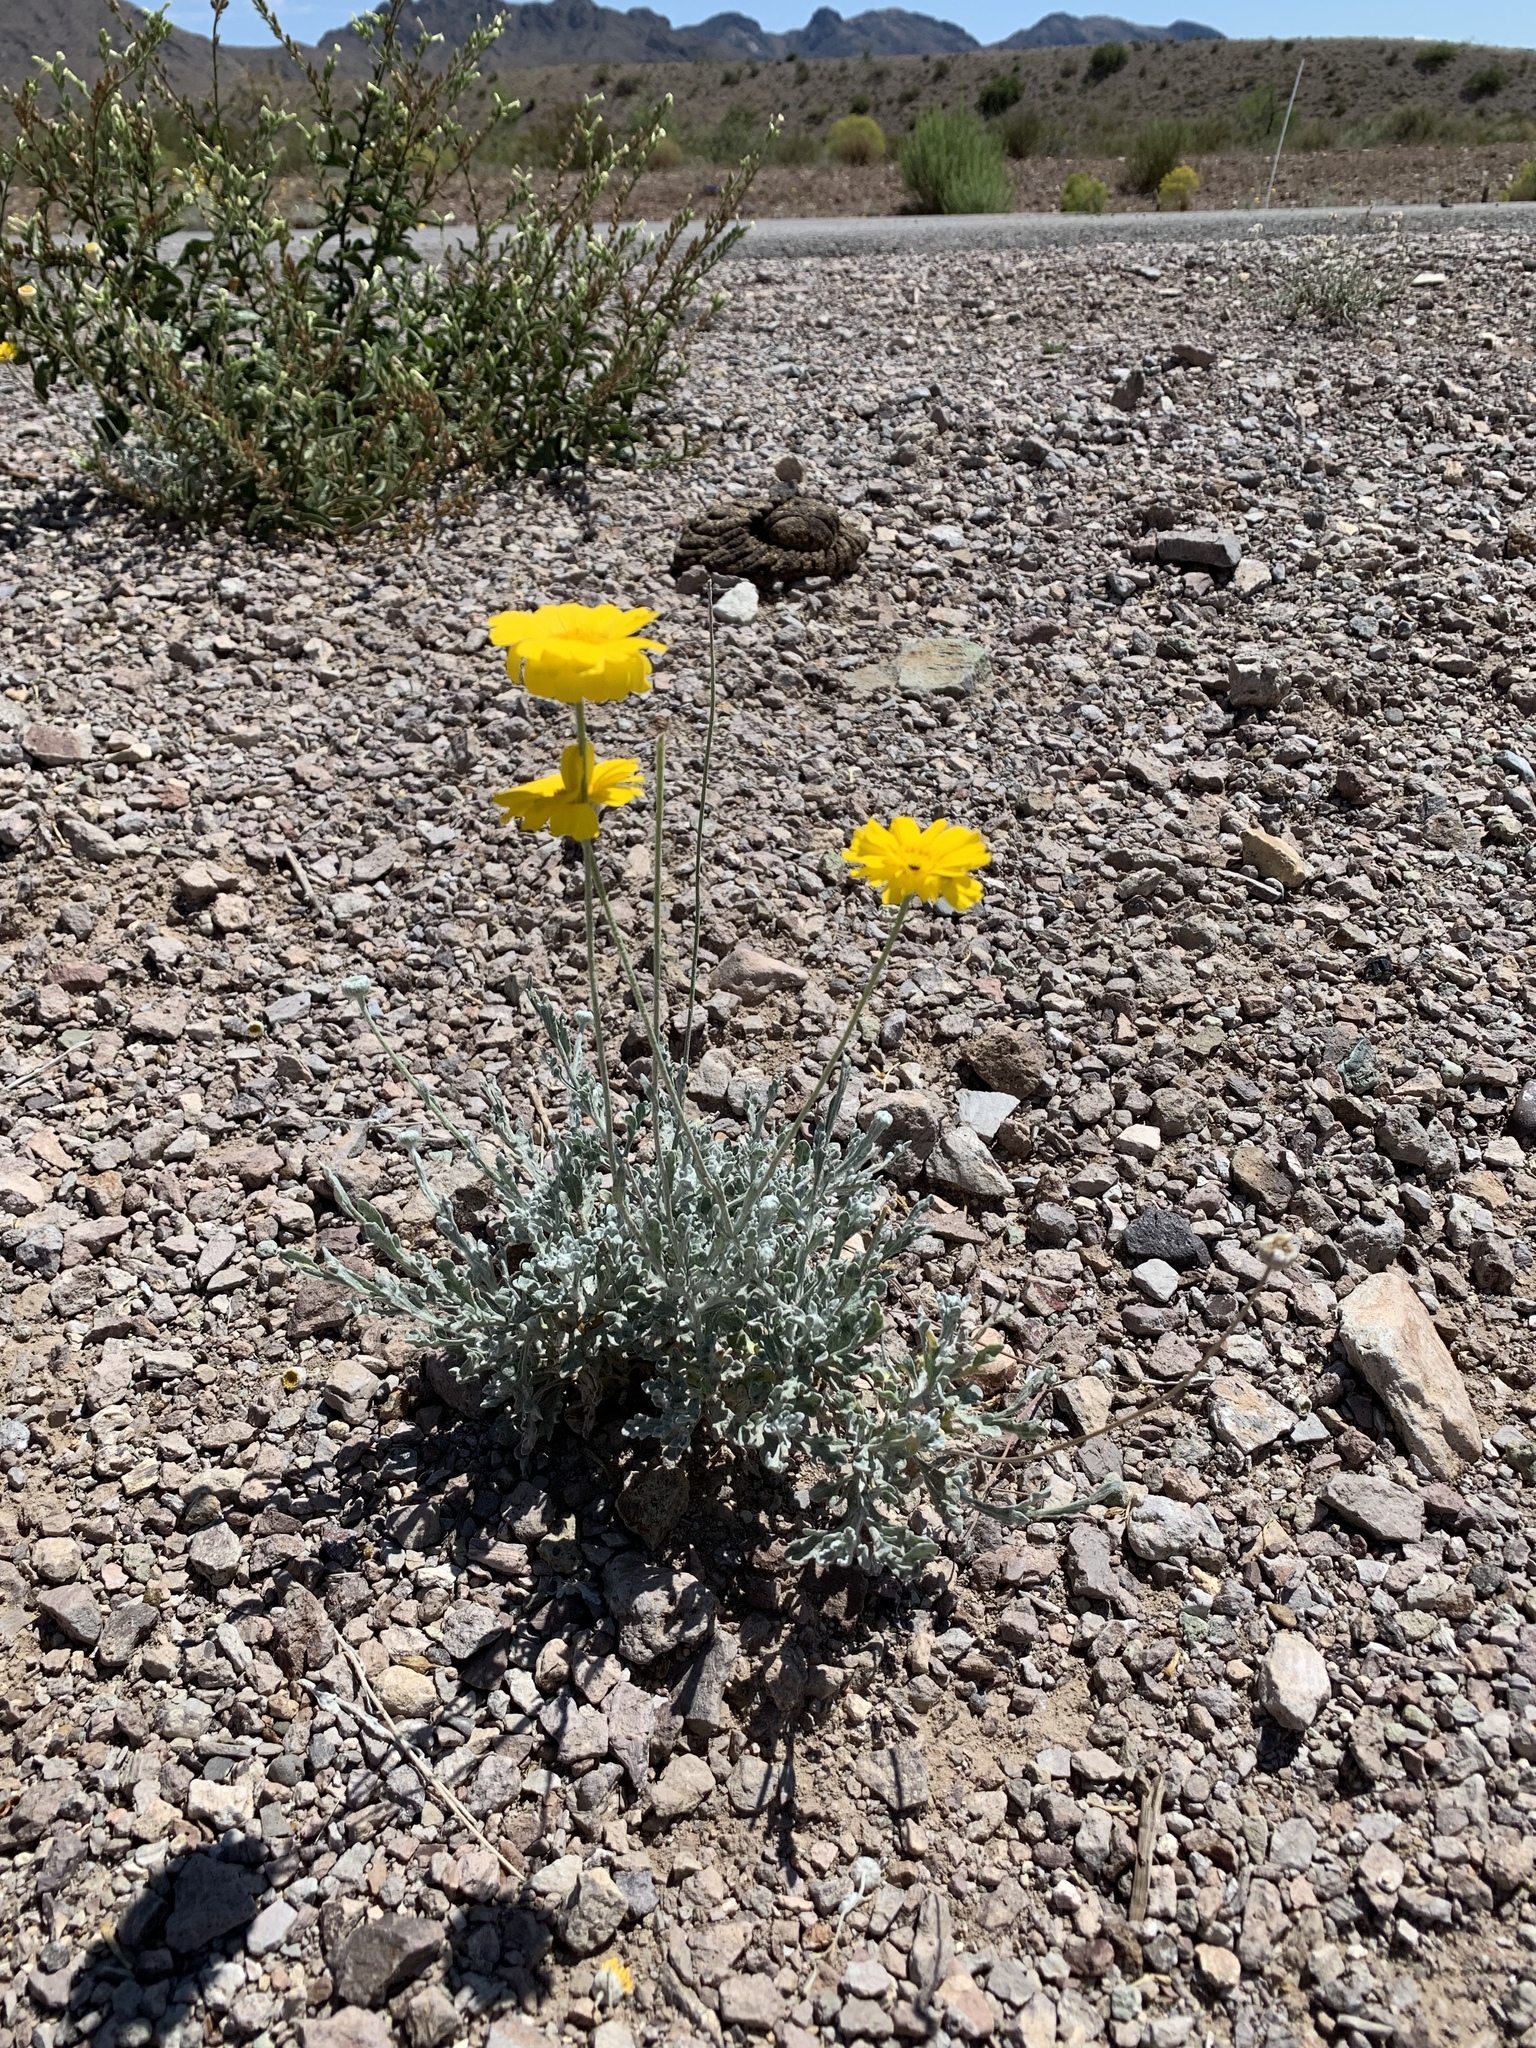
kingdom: Plantae
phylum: Tracheophyta
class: Magnoliopsida
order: Asterales
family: Asteraceae
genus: Baileya
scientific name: Baileya multiradiata
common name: Desert-marigold
